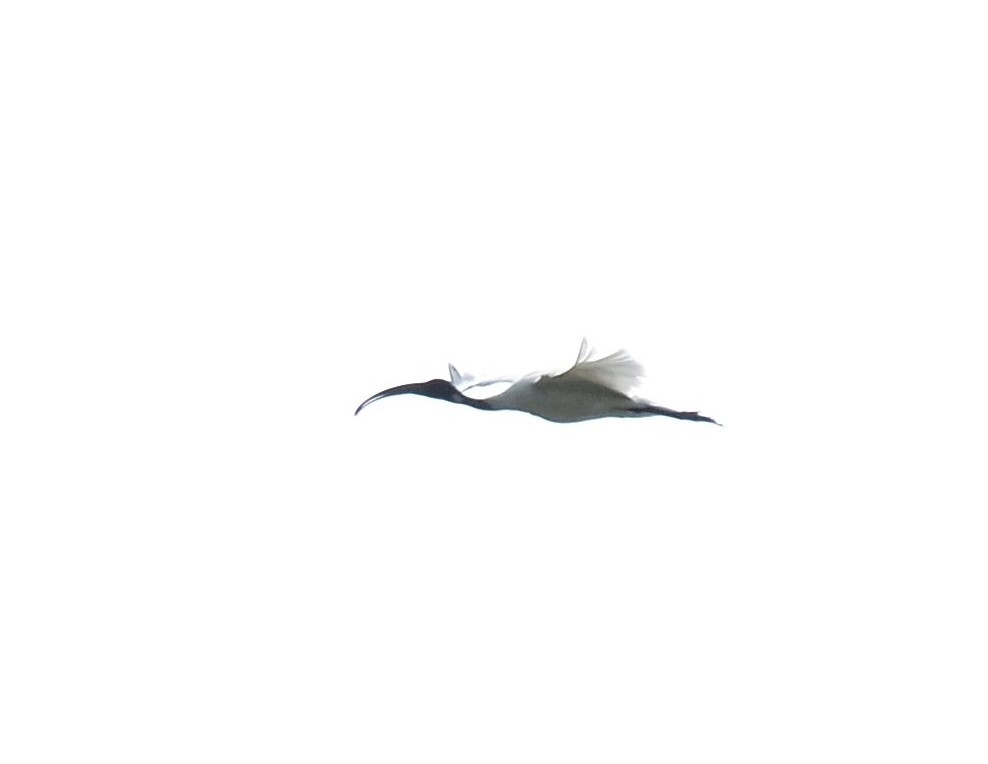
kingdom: Animalia
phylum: Chordata
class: Aves
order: Pelecaniformes
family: Threskiornithidae
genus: Threskiornis
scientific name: Threskiornis melanocephalus
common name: Black-headed ibis
